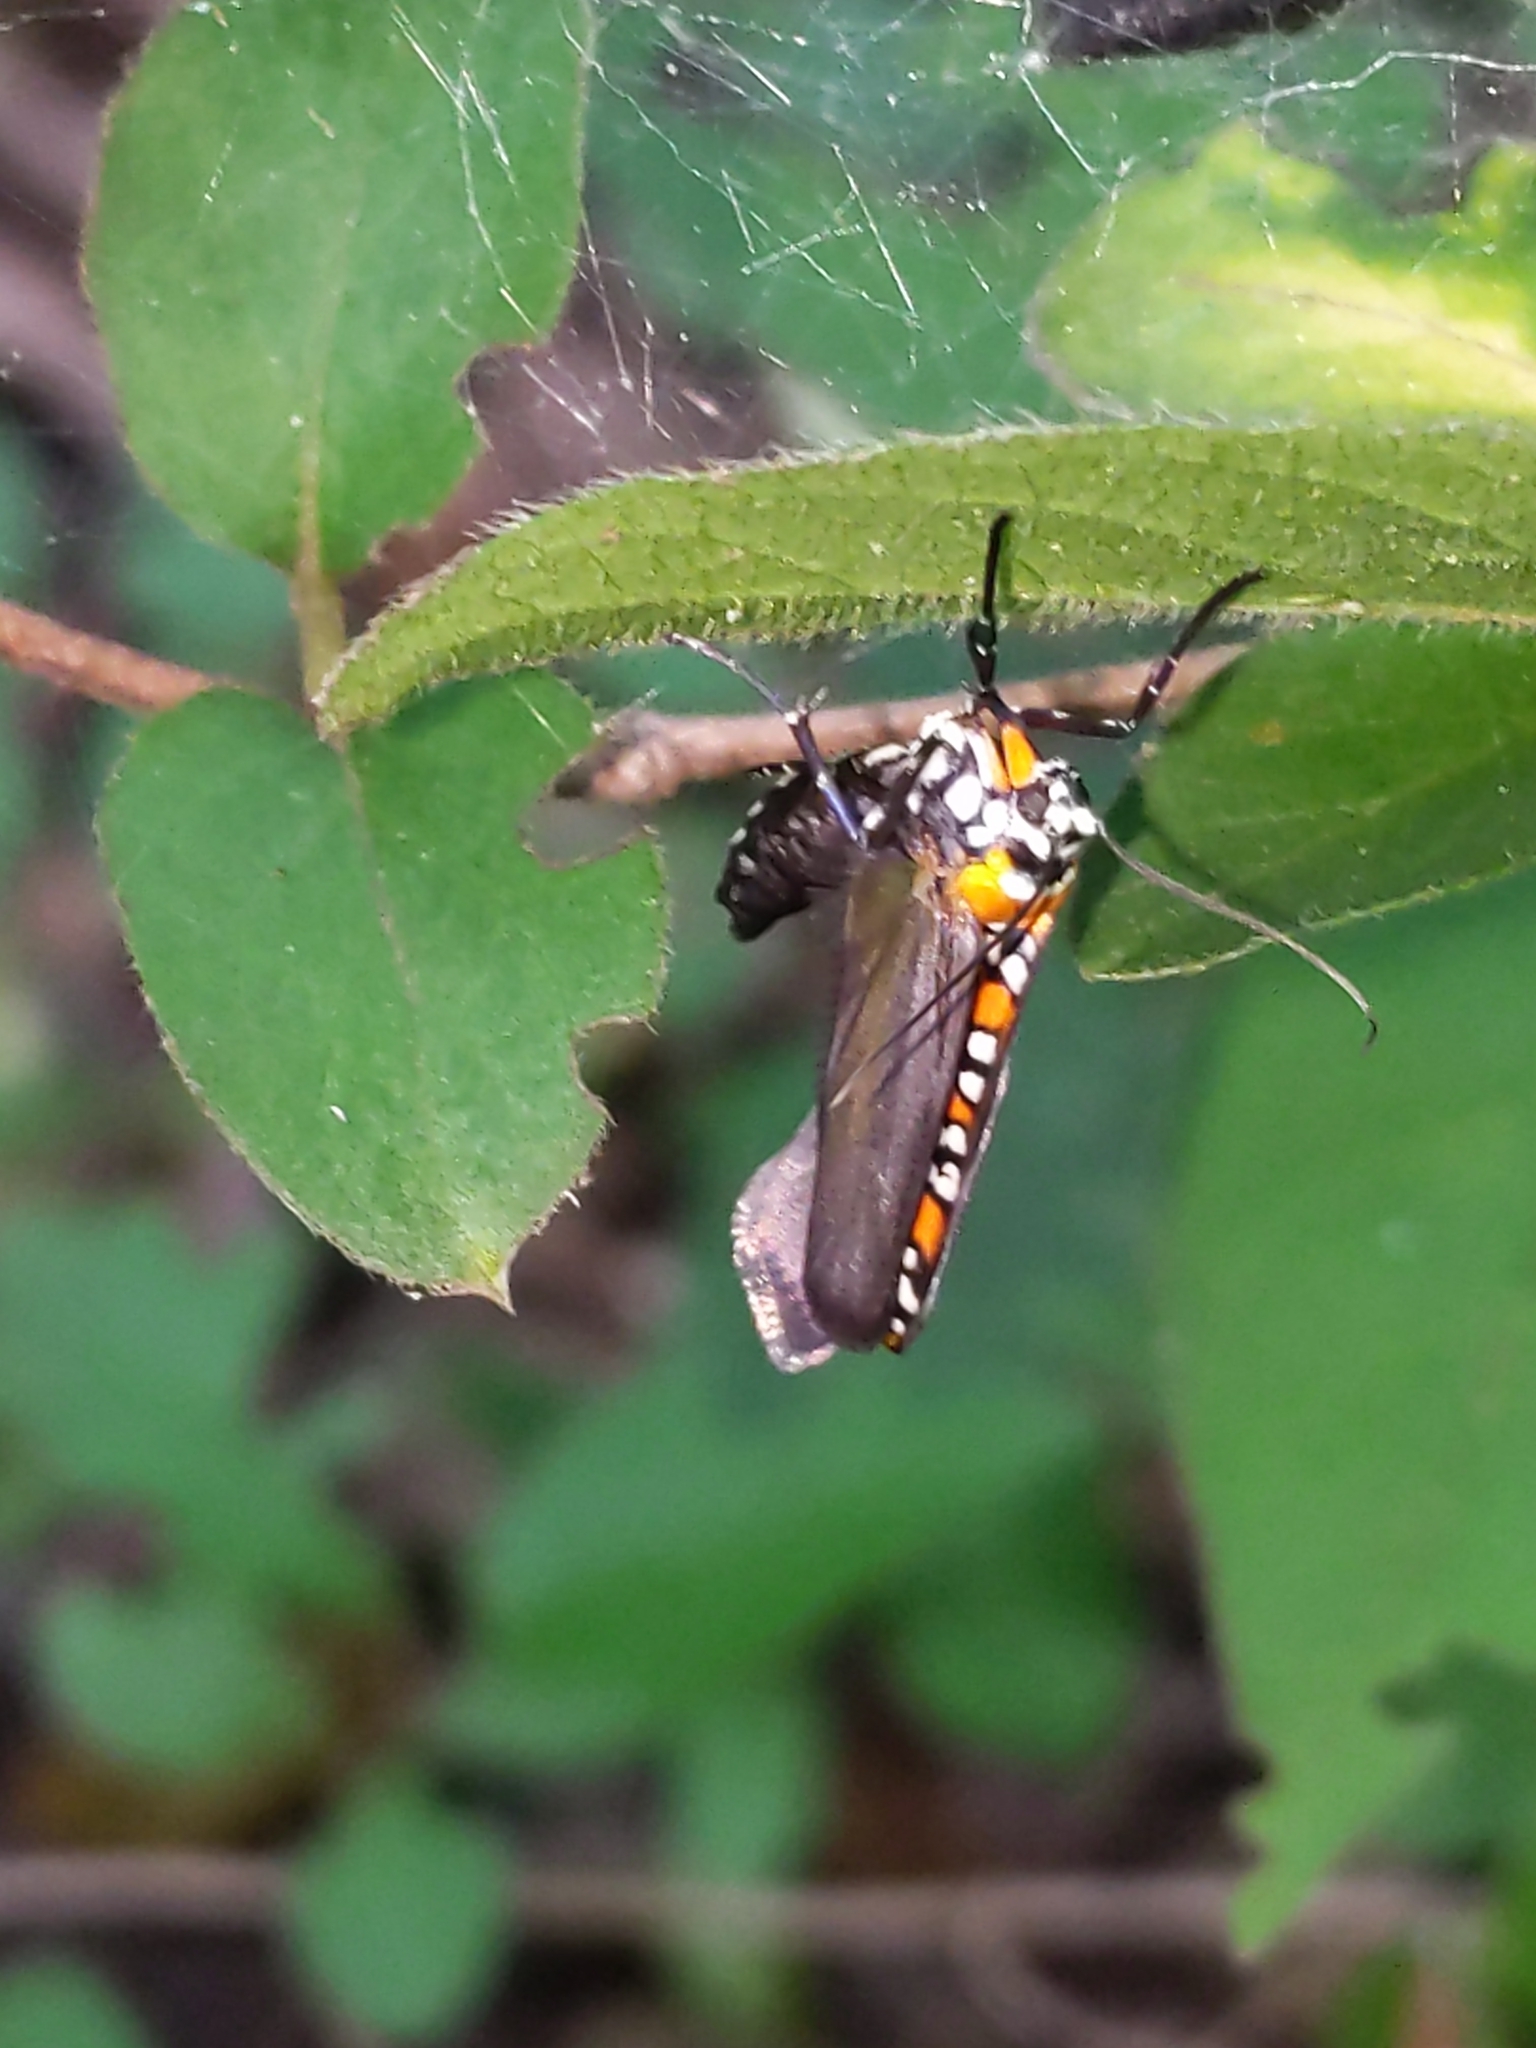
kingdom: Animalia
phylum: Arthropoda
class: Insecta
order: Lepidoptera
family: Attevidae
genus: Atteva
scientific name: Atteva punctella
